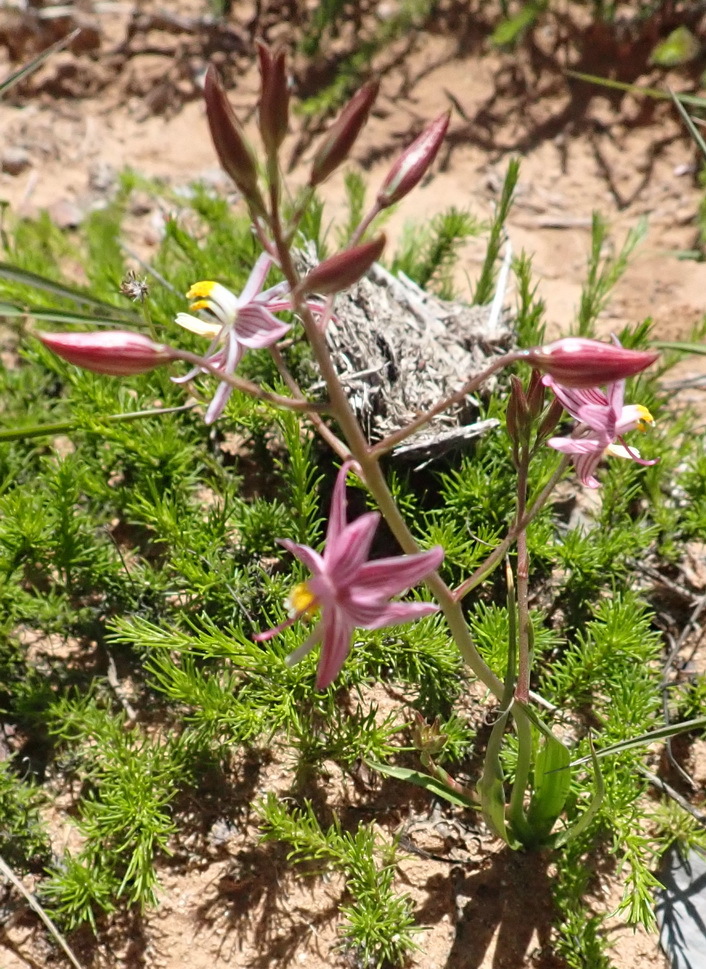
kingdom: Plantae
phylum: Tracheophyta
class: Liliopsida
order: Asparagales
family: Tecophilaeaceae
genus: Cyanella
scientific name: Cyanella lutea
